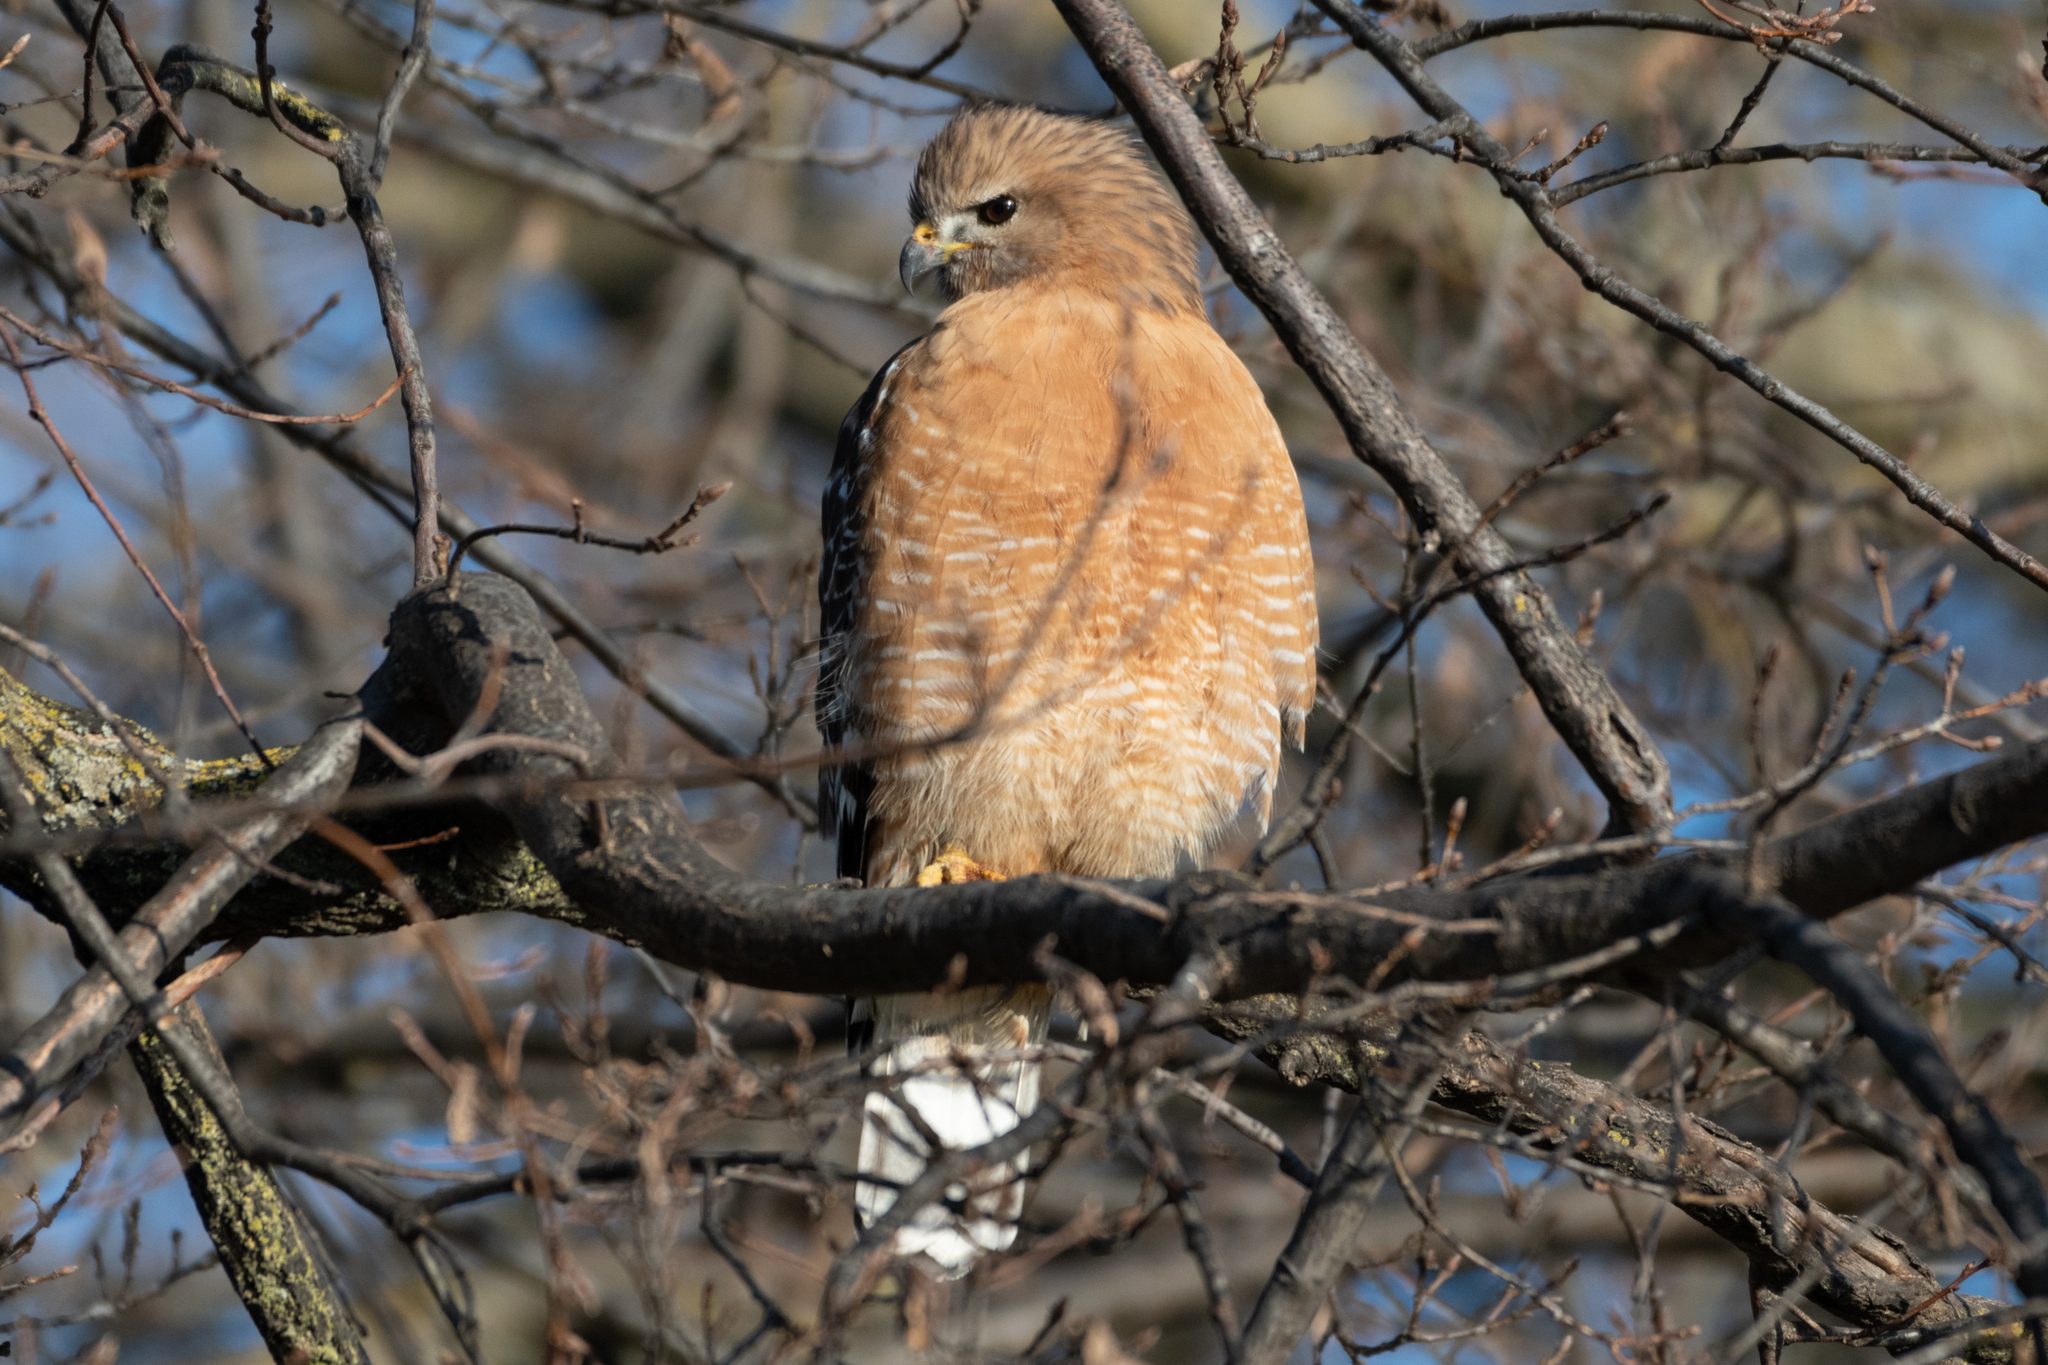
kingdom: Animalia
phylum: Chordata
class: Aves
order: Accipitriformes
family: Accipitridae
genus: Buteo
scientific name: Buteo lineatus
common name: Red-shouldered hawk
